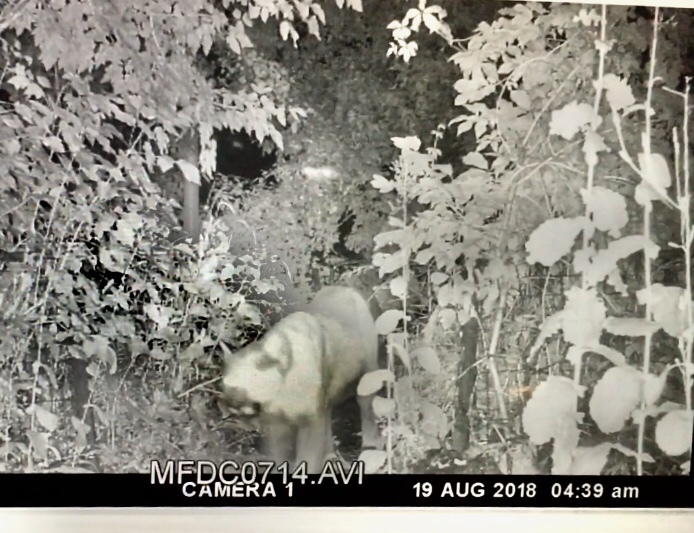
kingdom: Animalia
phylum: Chordata
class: Mammalia
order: Carnivora
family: Felidae
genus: Puma
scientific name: Puma concolor
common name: Puma
